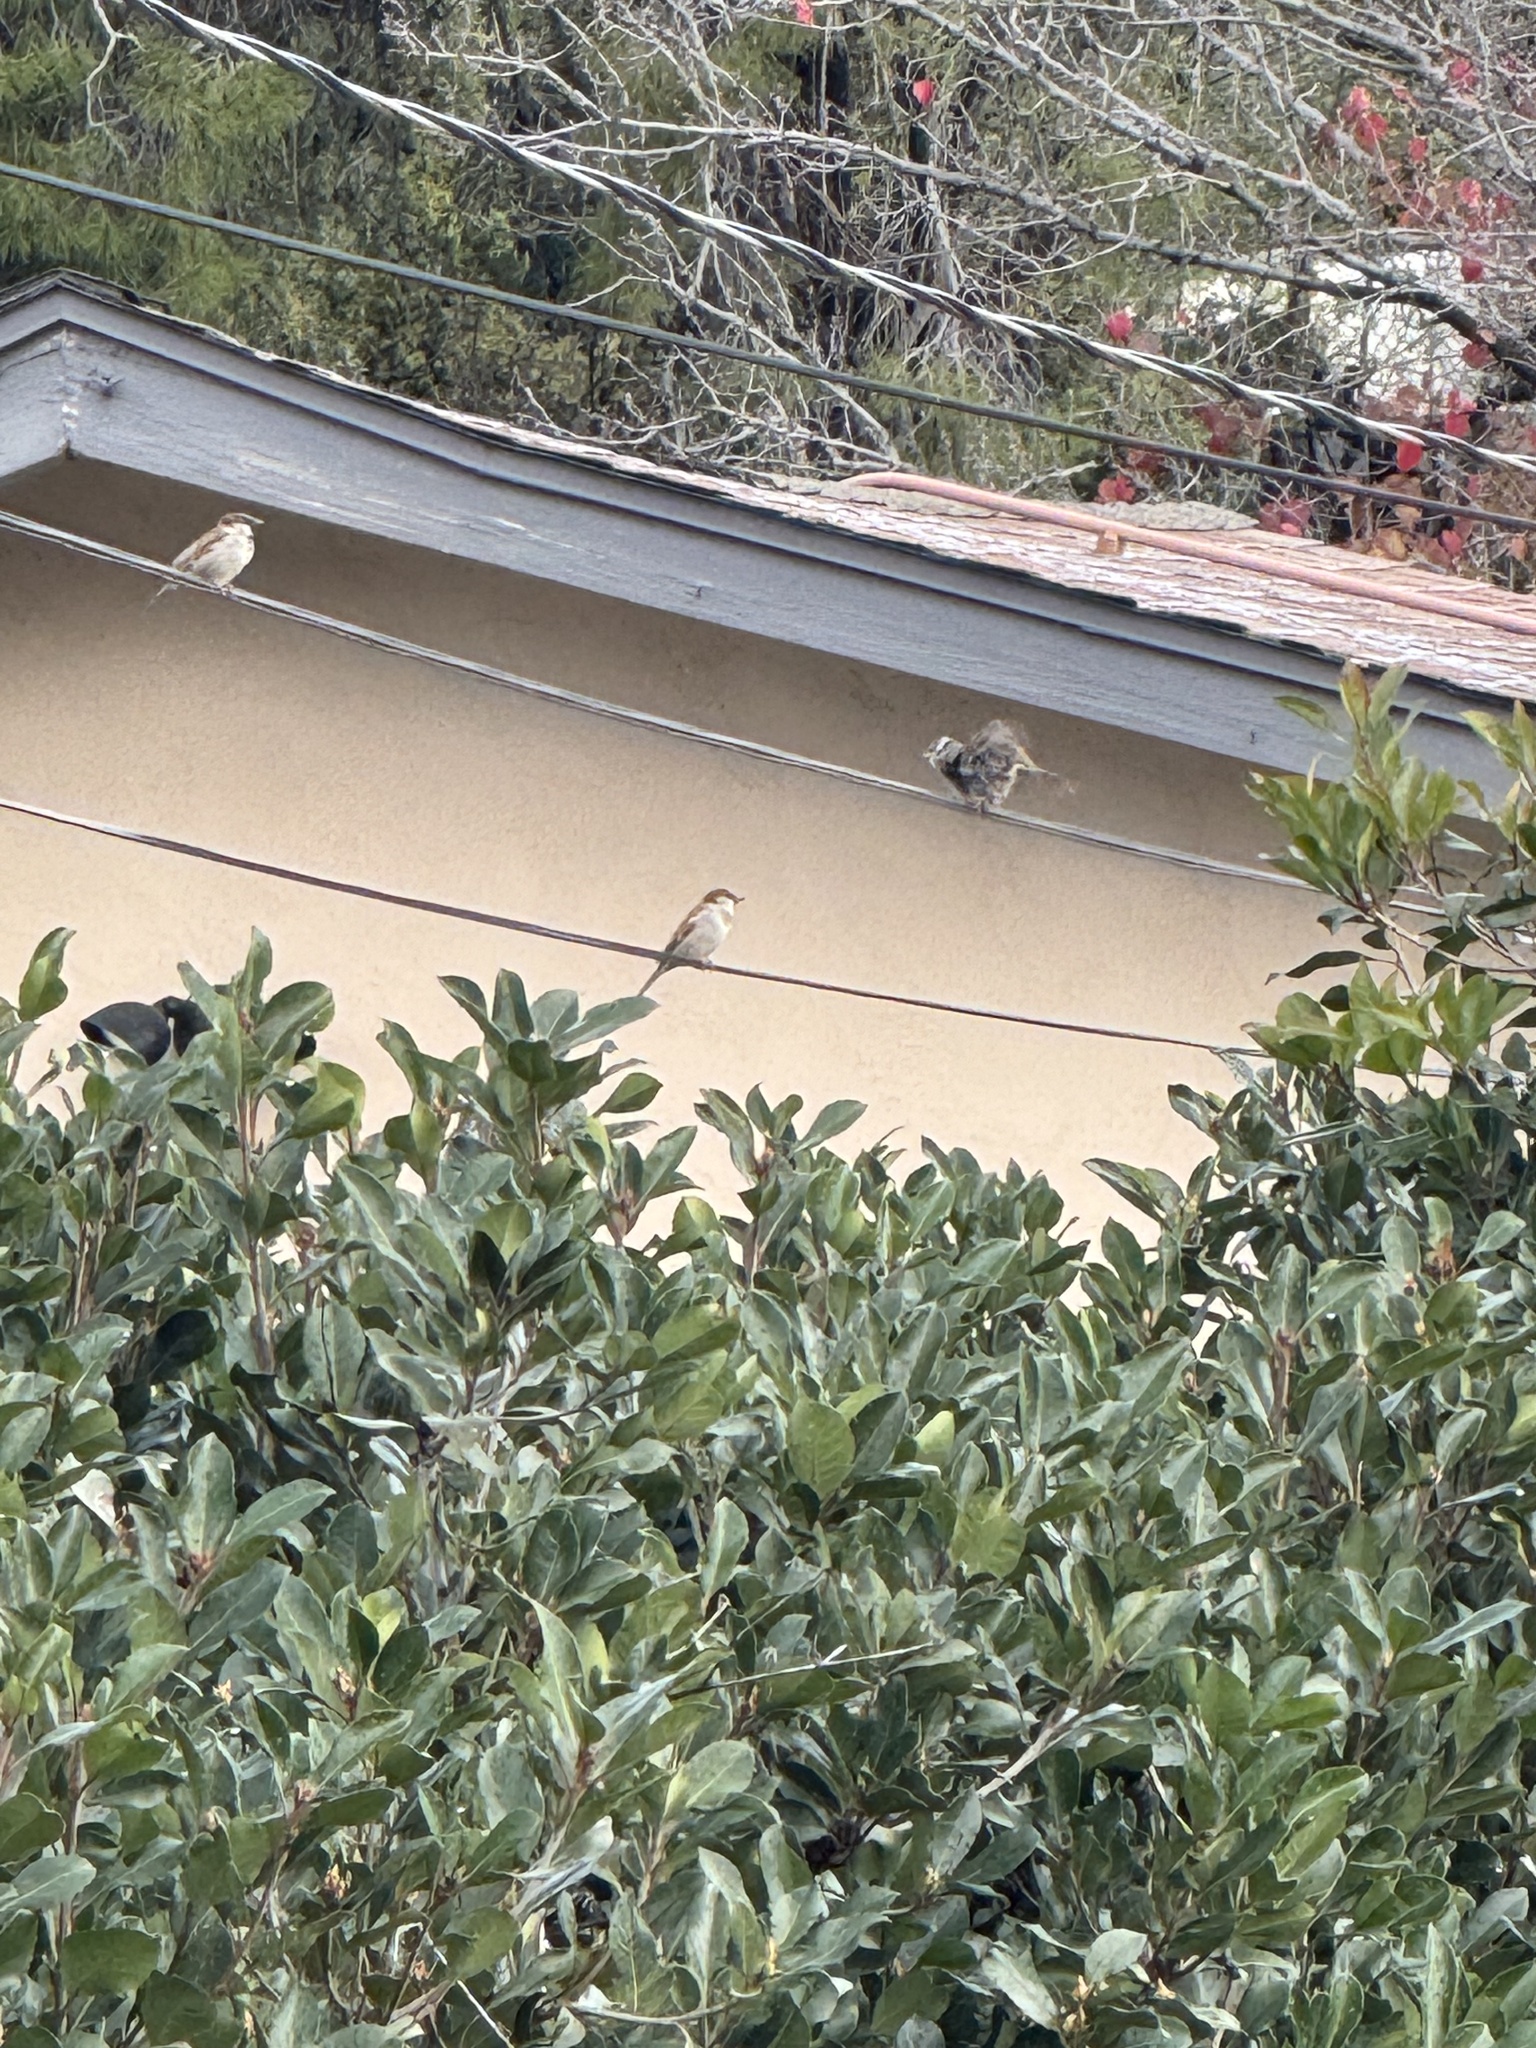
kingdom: Animalia
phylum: Chordata
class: Aves
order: Passeriformes
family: Passerellidae
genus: Zonotrichia
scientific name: Zonotrichia leucophrys
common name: White-crowned sparrow
